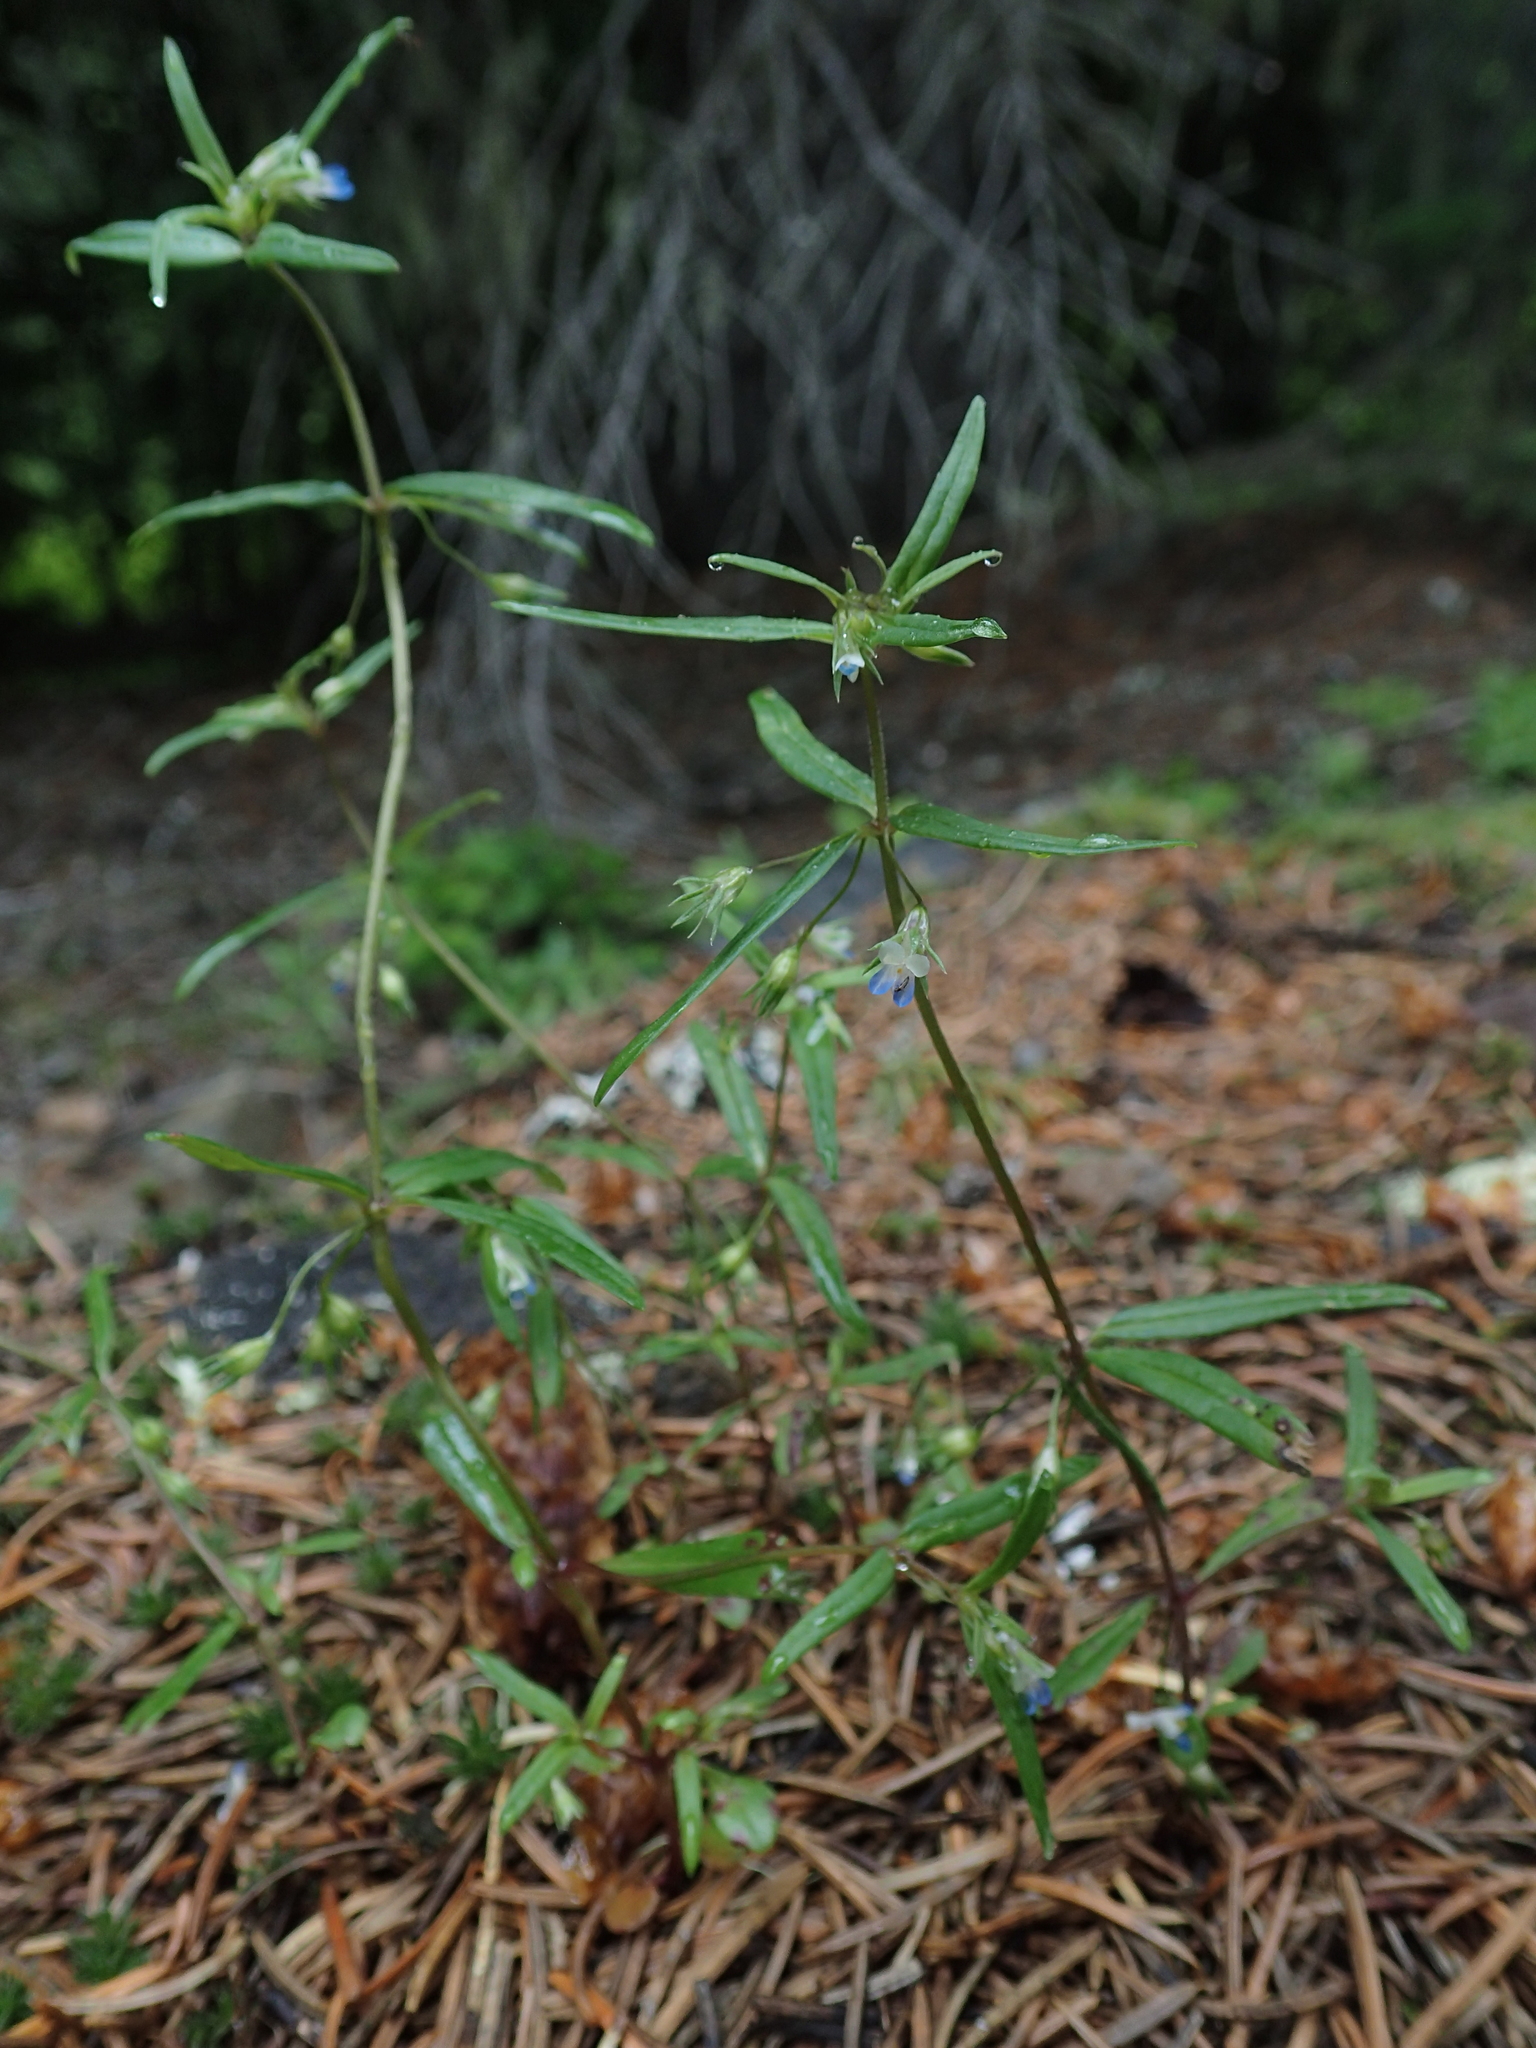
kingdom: Plantae
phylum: Tracheophyta
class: Magnoliopsida
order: Lamiales
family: Plantaginaceae
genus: Collinsia
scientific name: Collinsia parviflora
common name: Blue-lips
